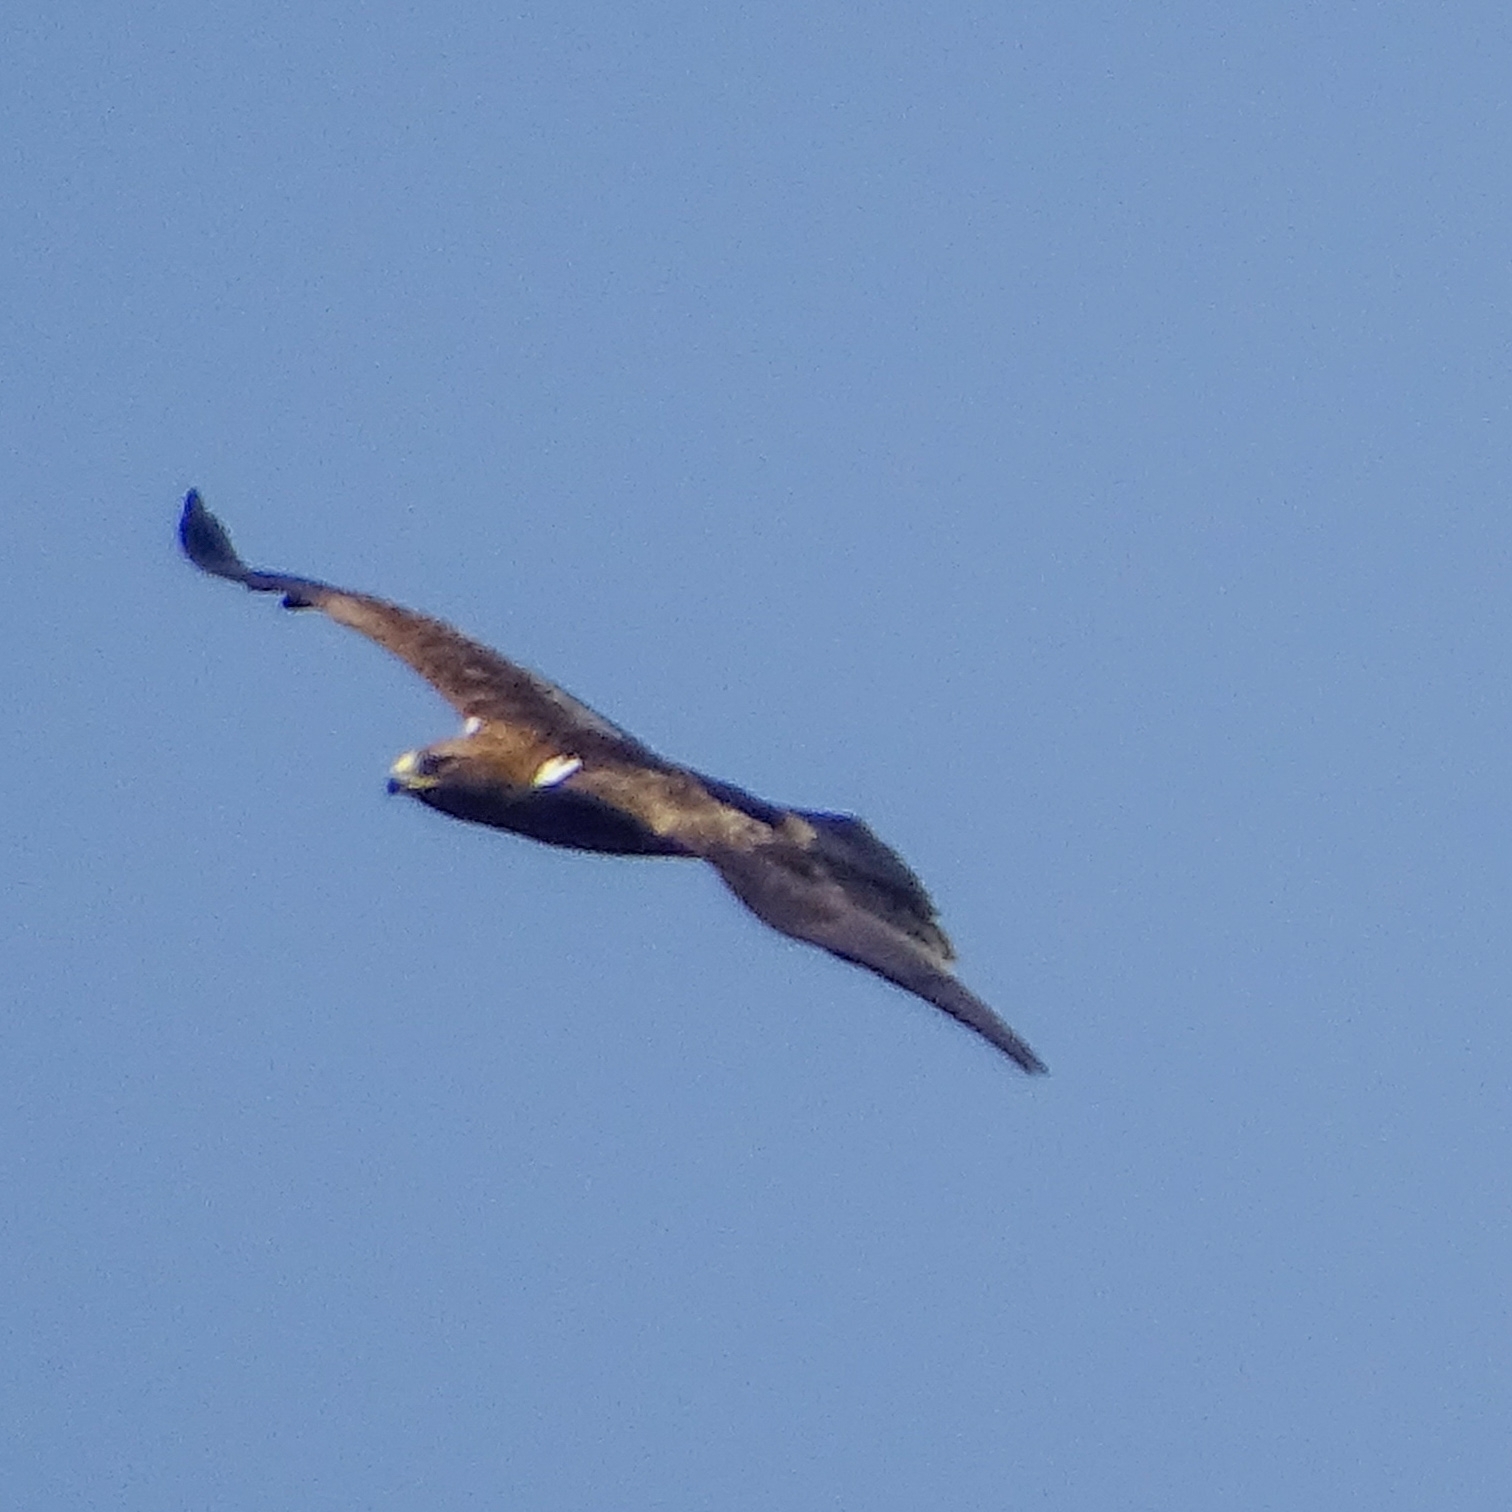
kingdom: Animalia
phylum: Chordata
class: Aves
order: Accipitriformes
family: Accipitridae
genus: Hieraaetus
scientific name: Hieraaetus pennatus
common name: Booted eagle
